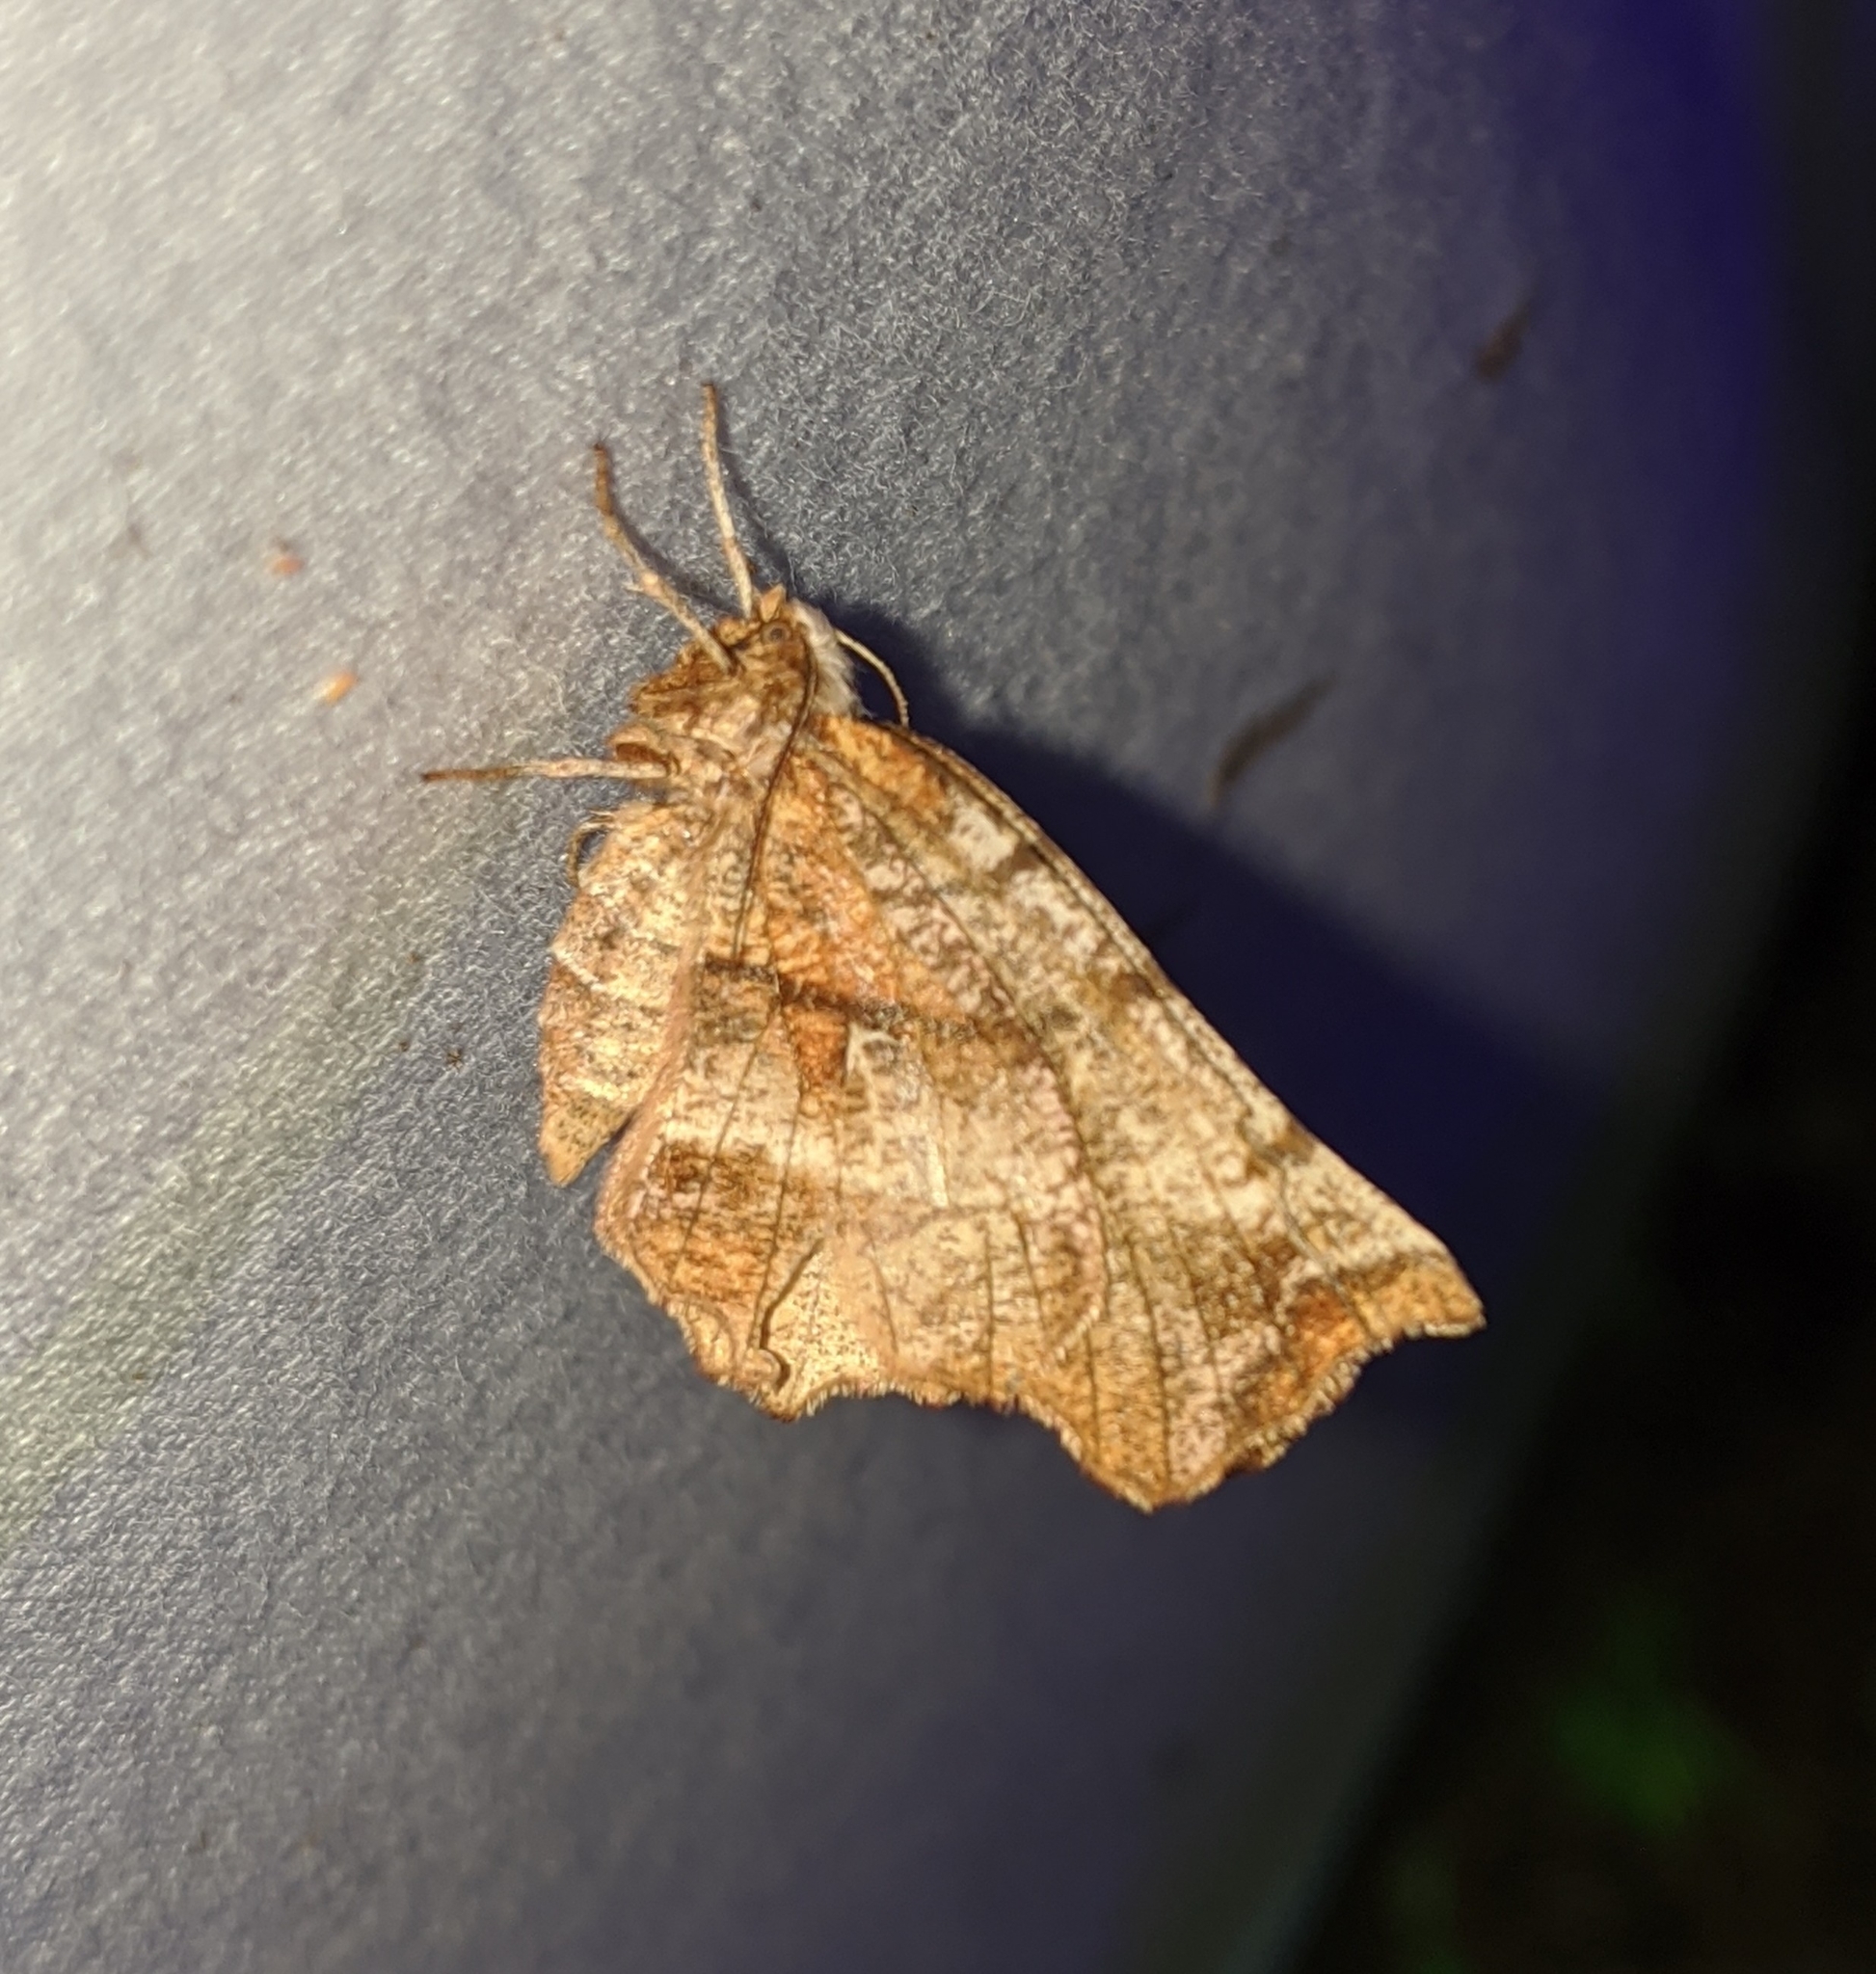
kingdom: Animalia
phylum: Arthropoda
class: Insecta
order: Lepidoptera
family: Geometridae
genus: Selenia
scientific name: Selenia alciphearia
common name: Brown-tipped thorn
